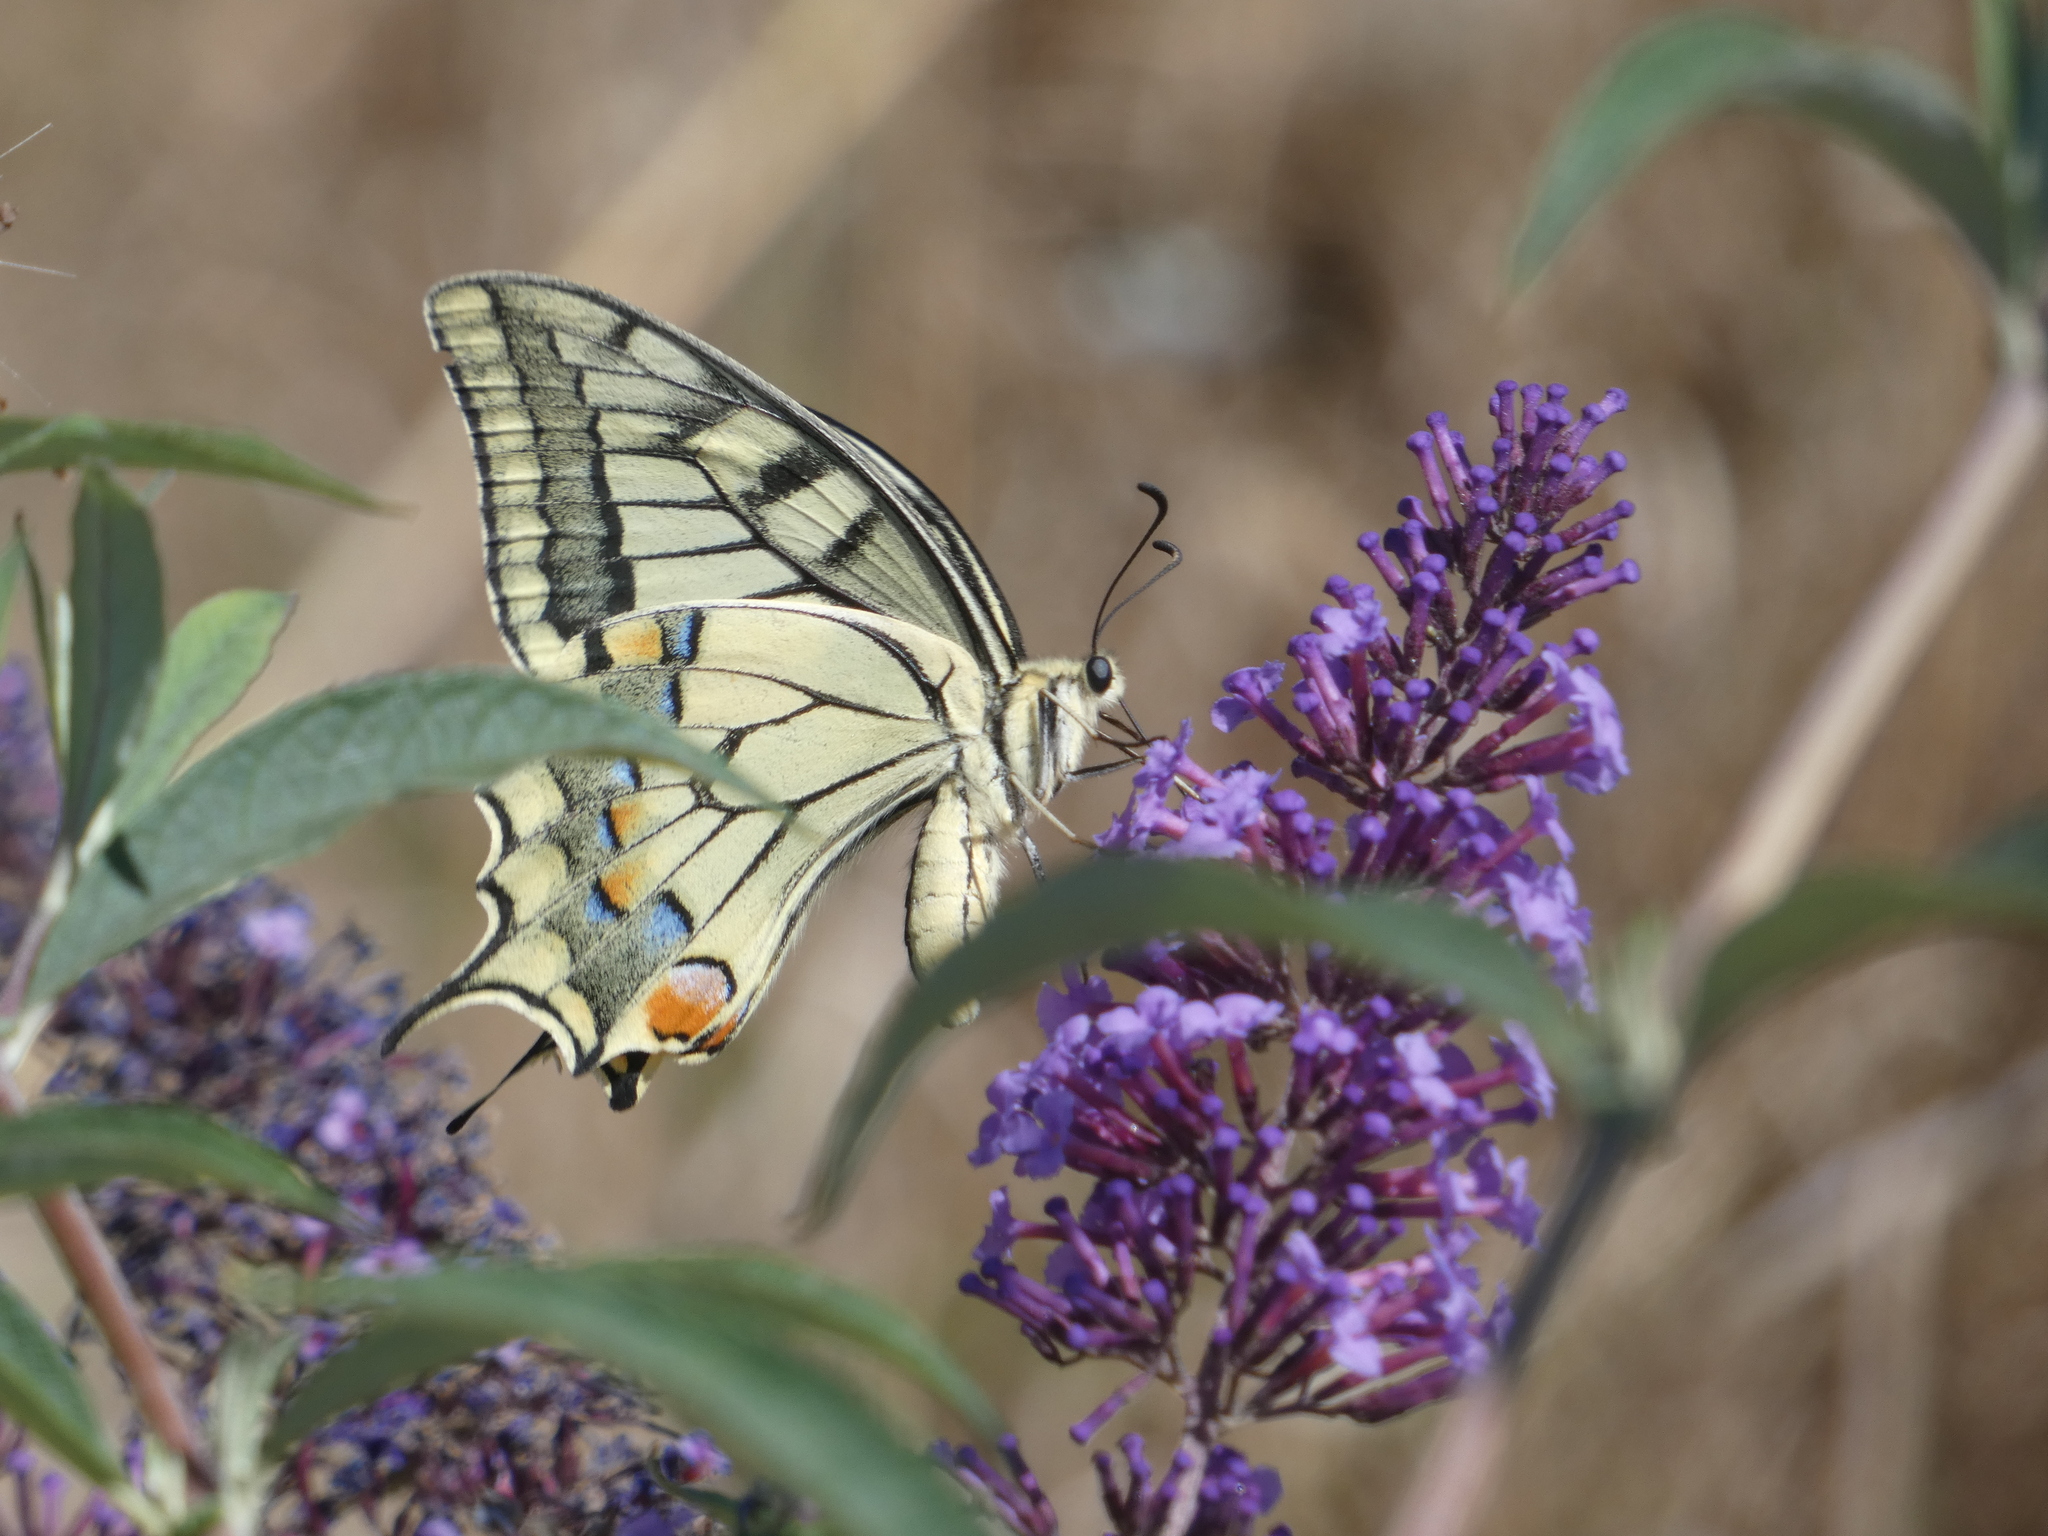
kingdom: Animalia
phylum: Arthropoda
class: Insecta
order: Lepidoptera
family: Papilionidae
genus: Papilio
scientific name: Papilio machaon
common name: Swallowtail
